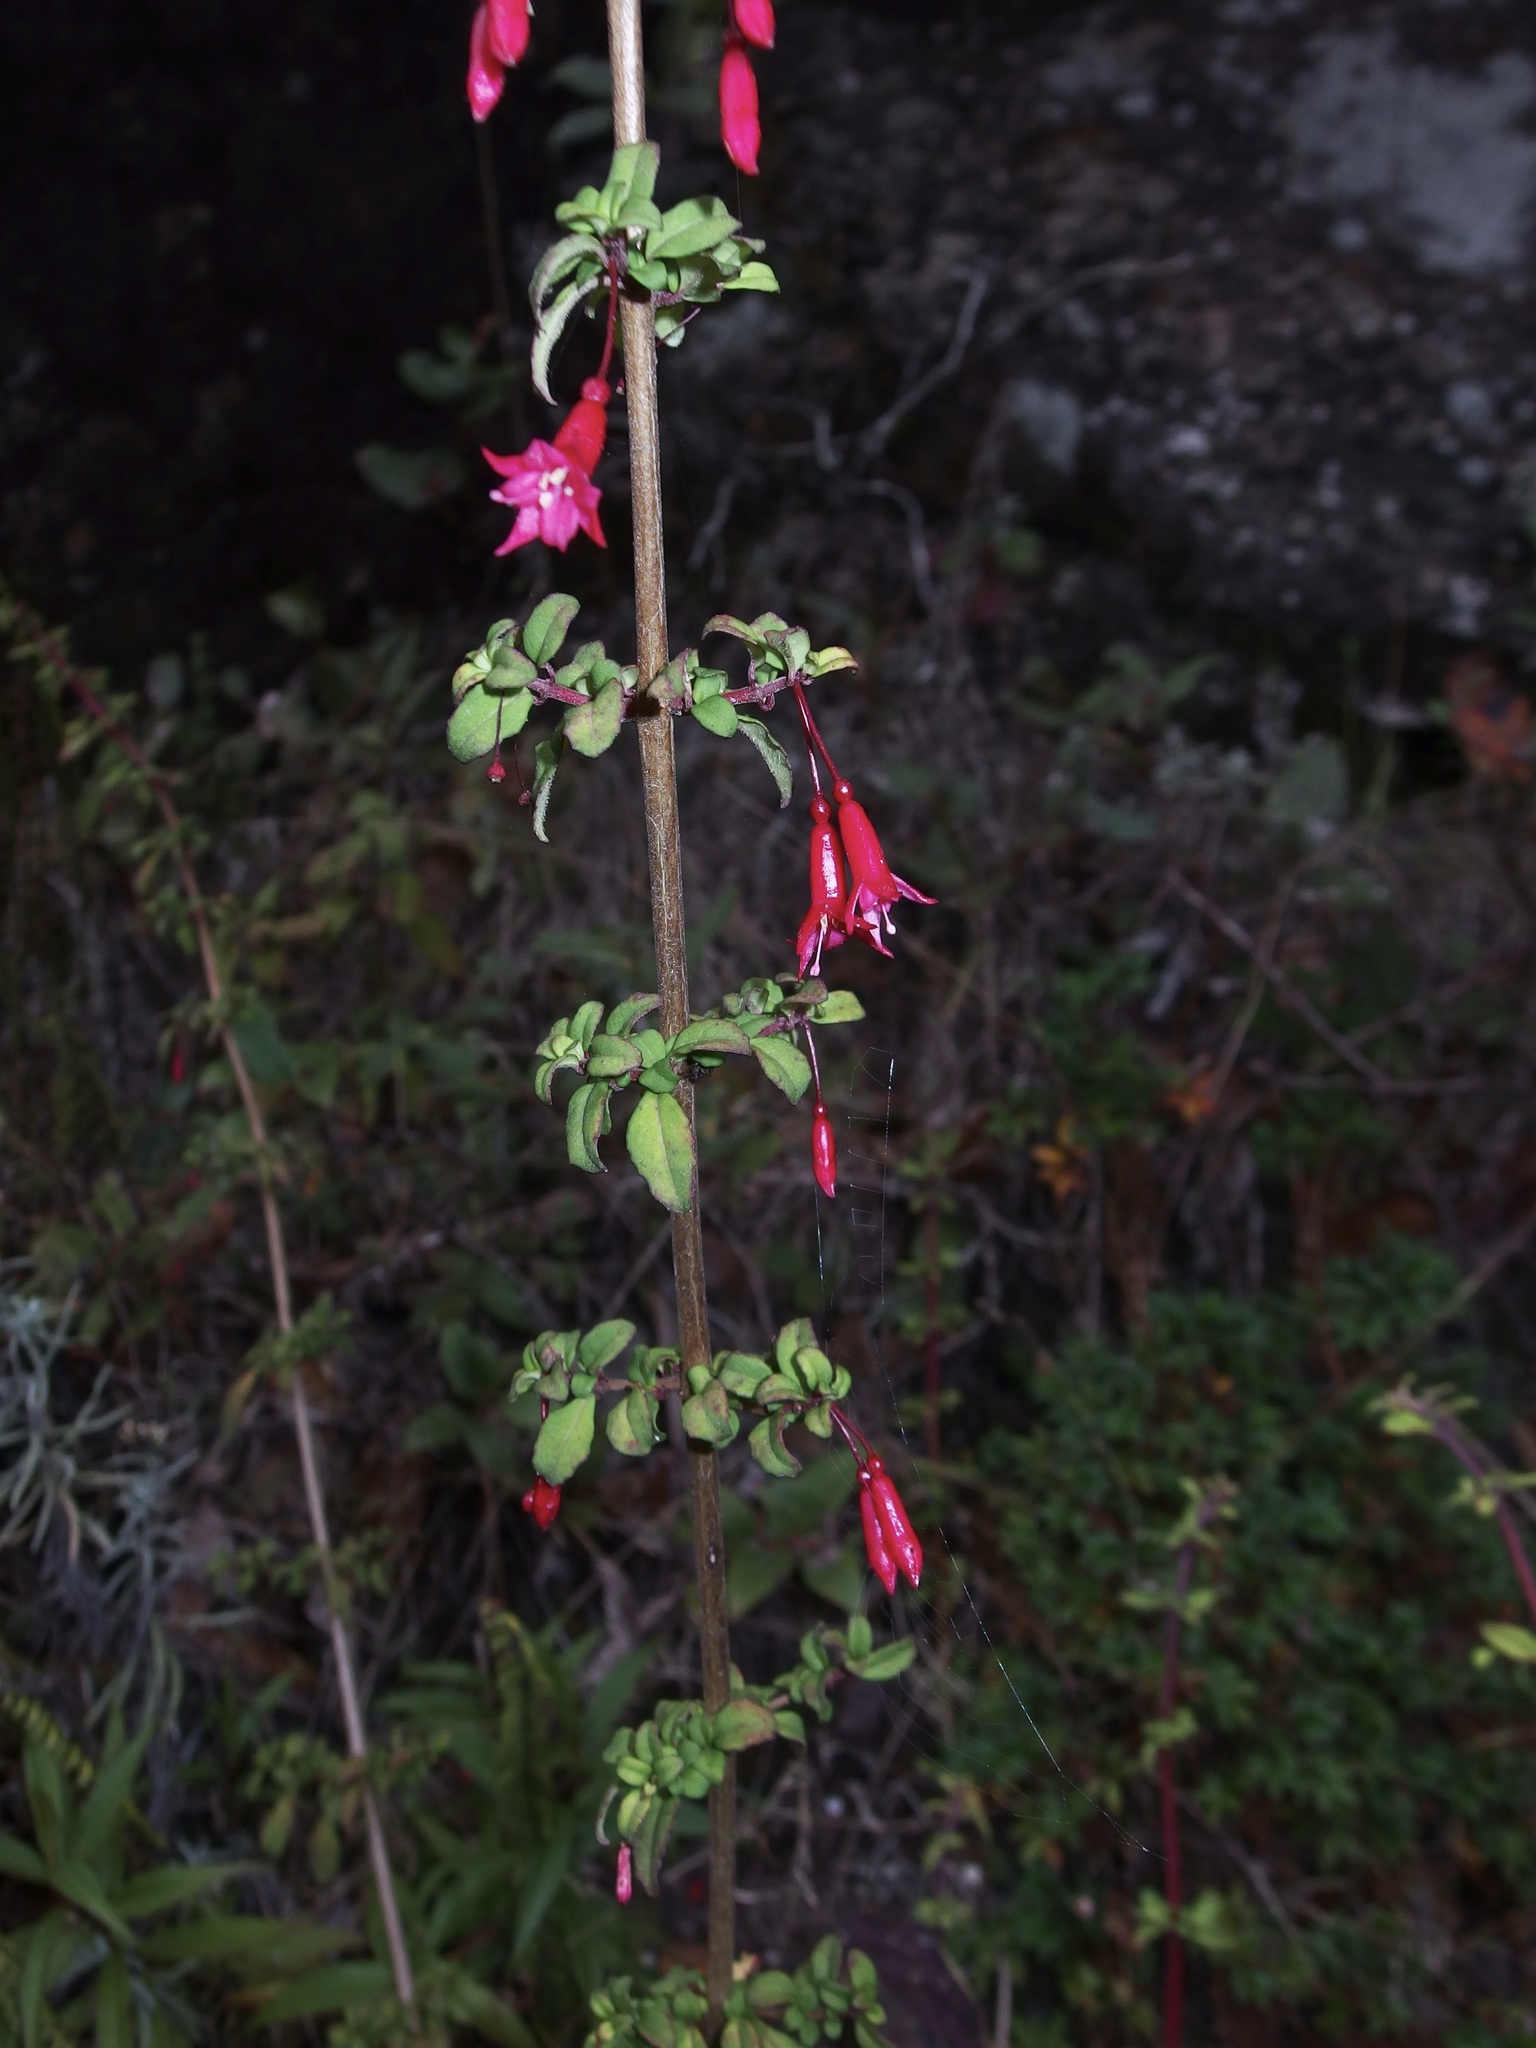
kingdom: Plantae
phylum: Tracheophyta
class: Magnoliopsida
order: Myrtales
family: Onagraceae
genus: Fuchsia
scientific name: Fuchsia microphylla
